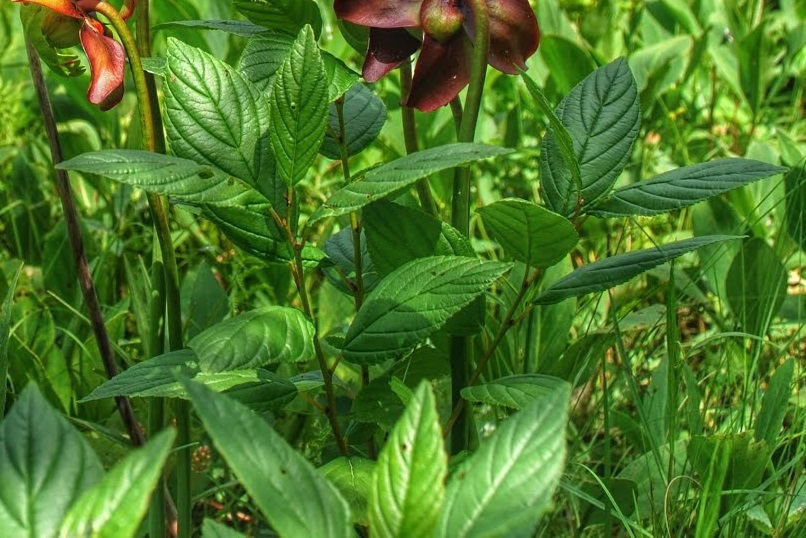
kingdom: Plantae
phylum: Tracheophyta
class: Magnoliopsida
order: Rosales
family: Rhamnaceae
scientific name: Rhamnaceae
